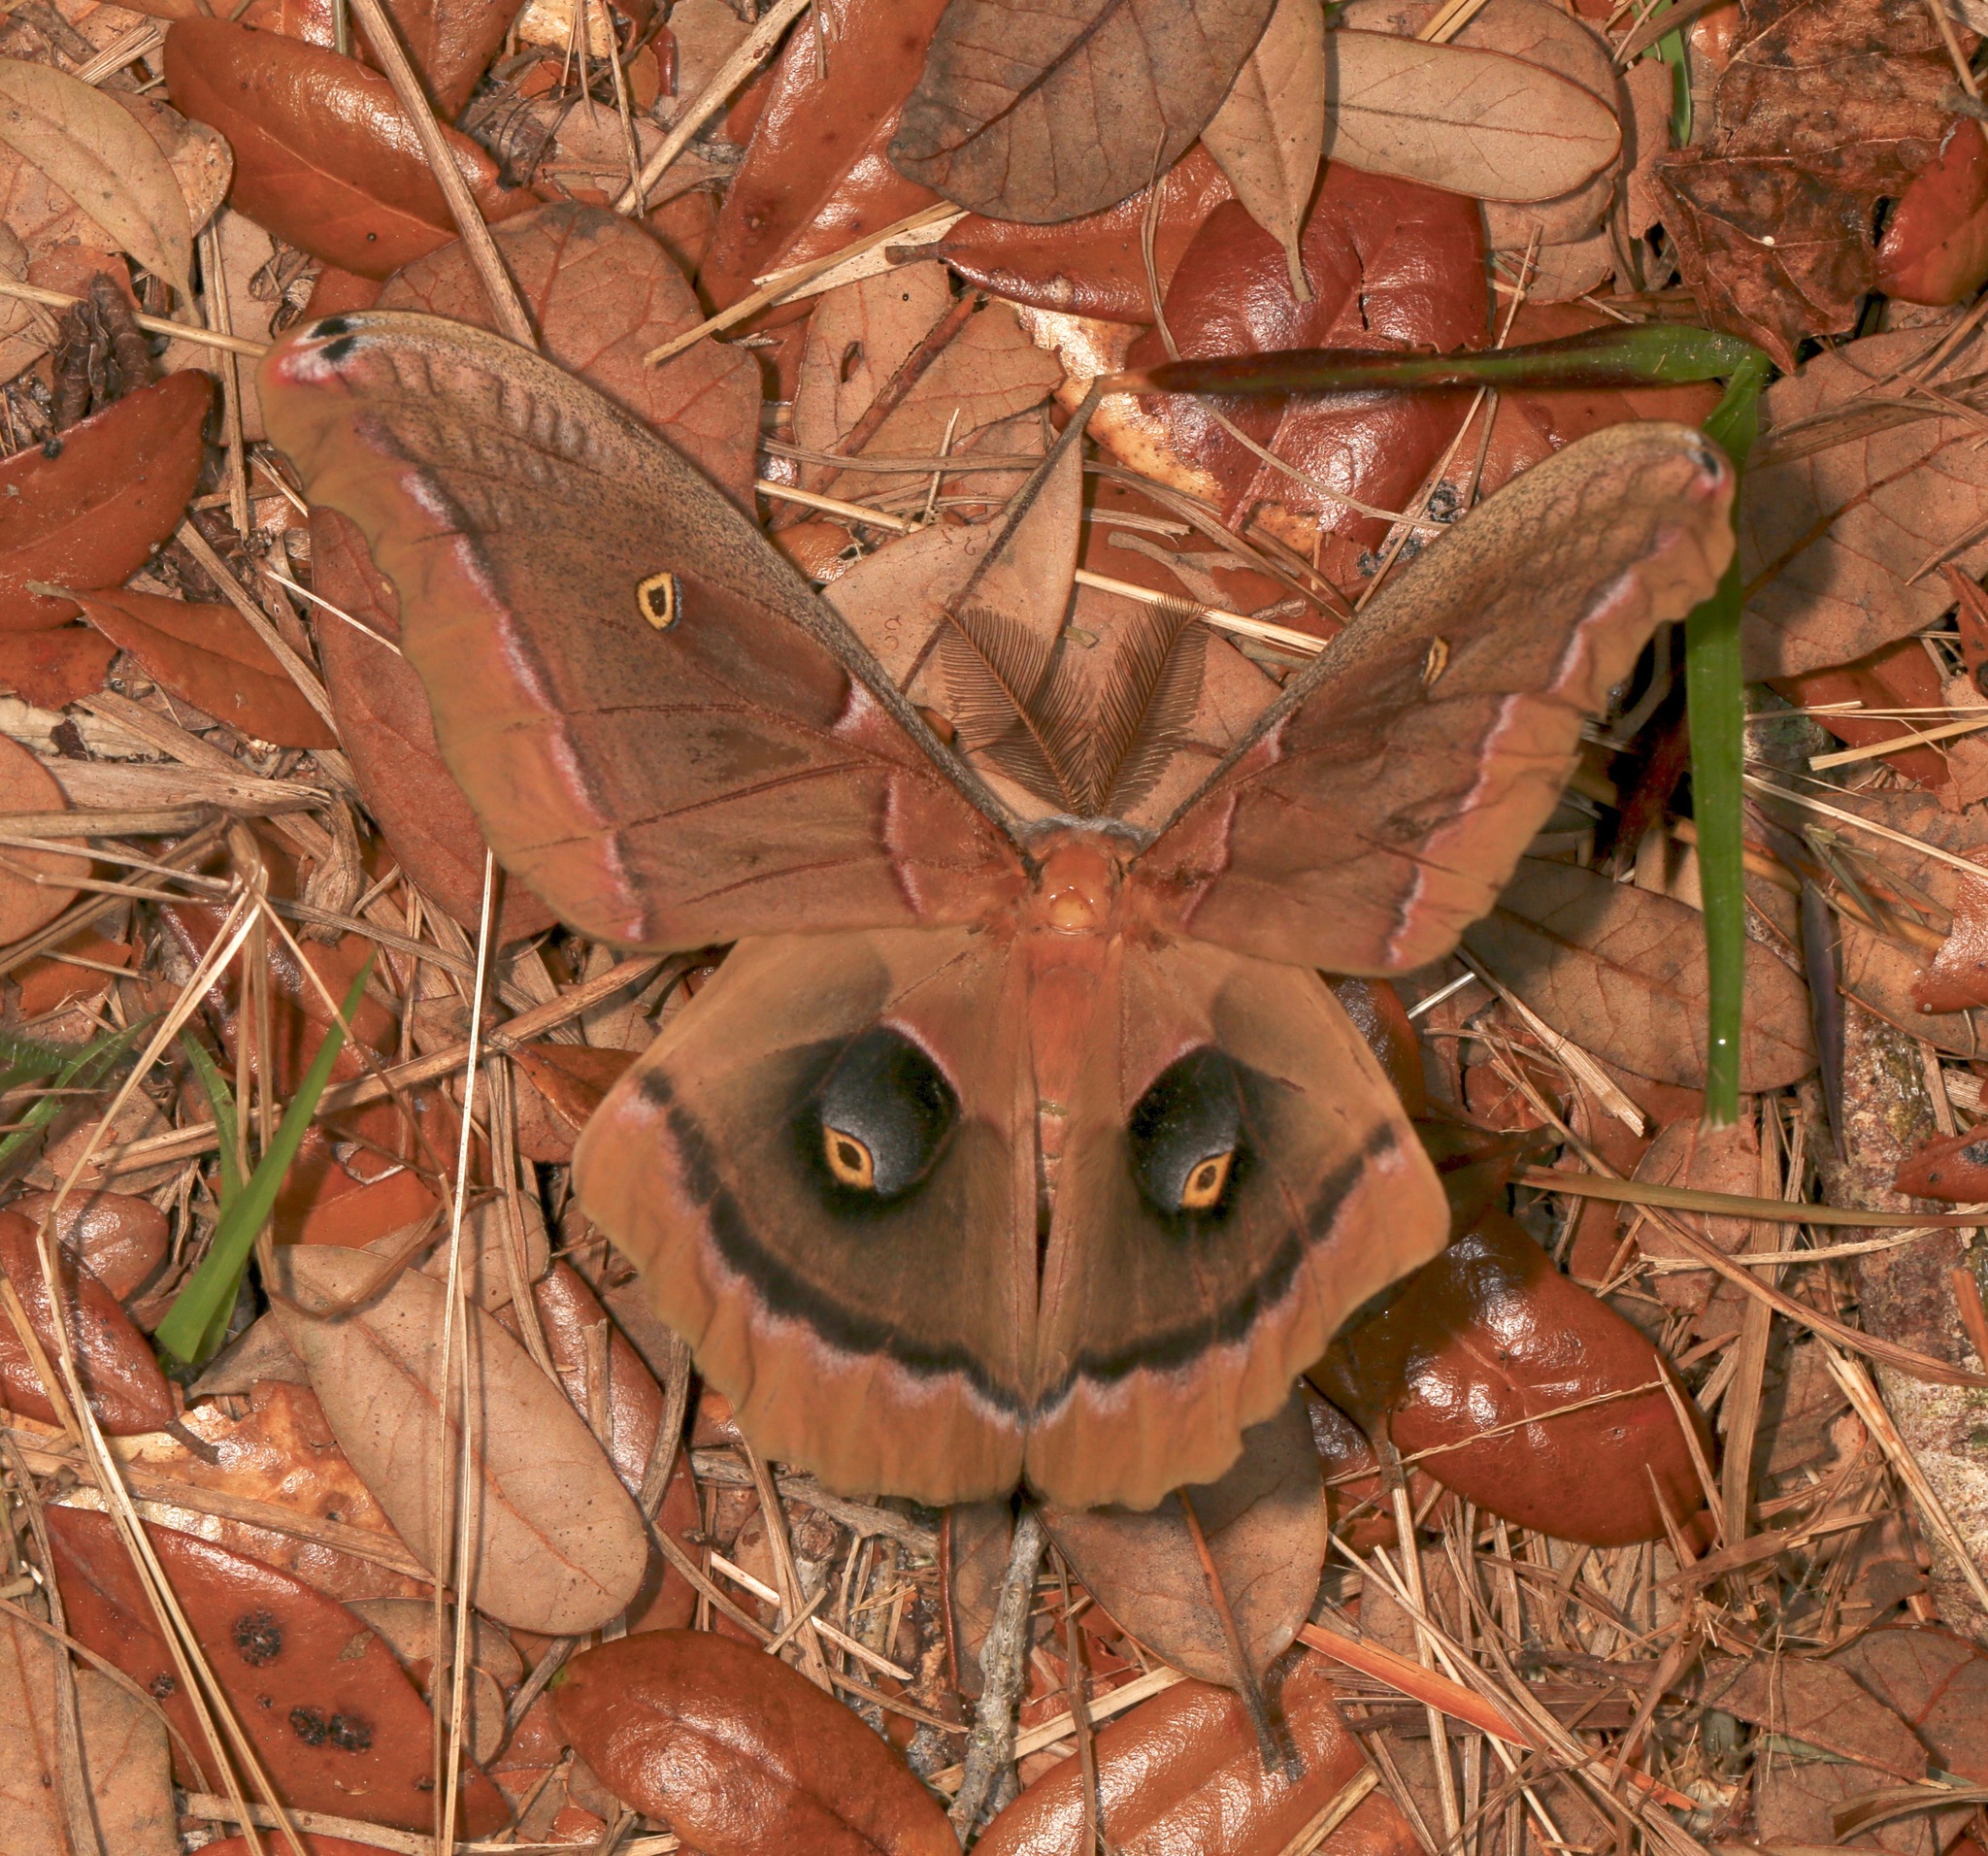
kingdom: Animalia
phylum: Arthropoda
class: Insecta
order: Lepidoptera
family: Saturniidae
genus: Antheraea
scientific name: Antheraea polyphemus
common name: Polyphemus moth
